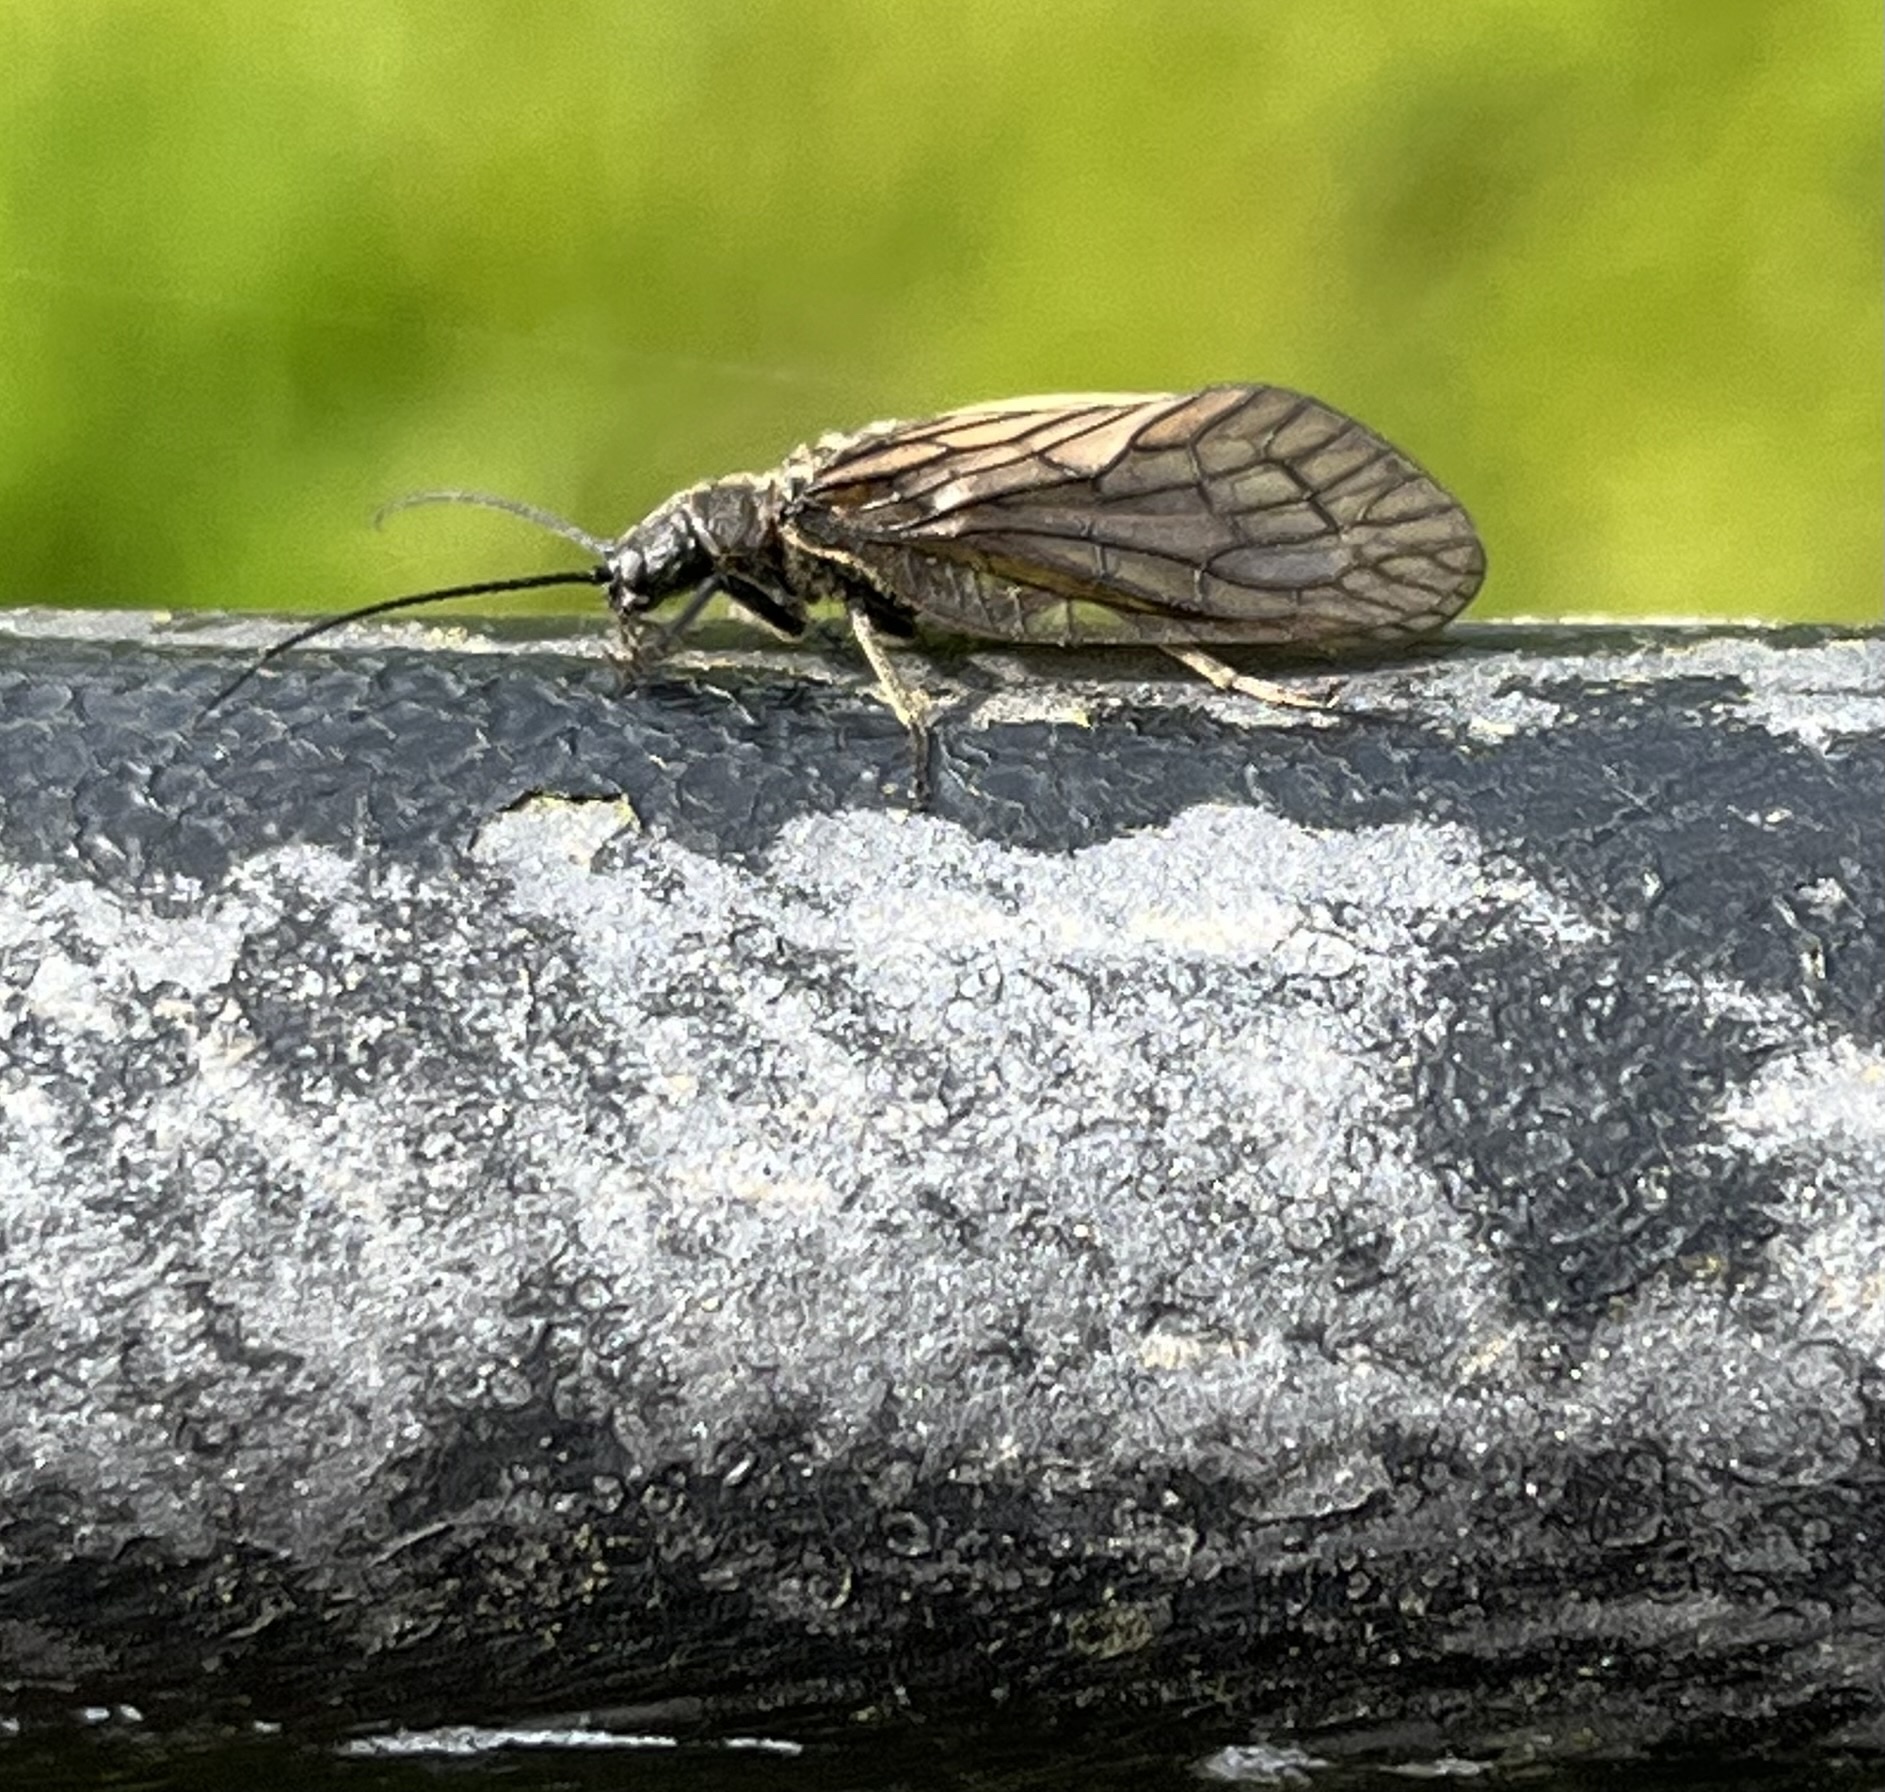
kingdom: Animalia
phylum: Arthropoda
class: Insecta
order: Megaloptera
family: Sialidae
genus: Sialis
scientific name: Sialis
